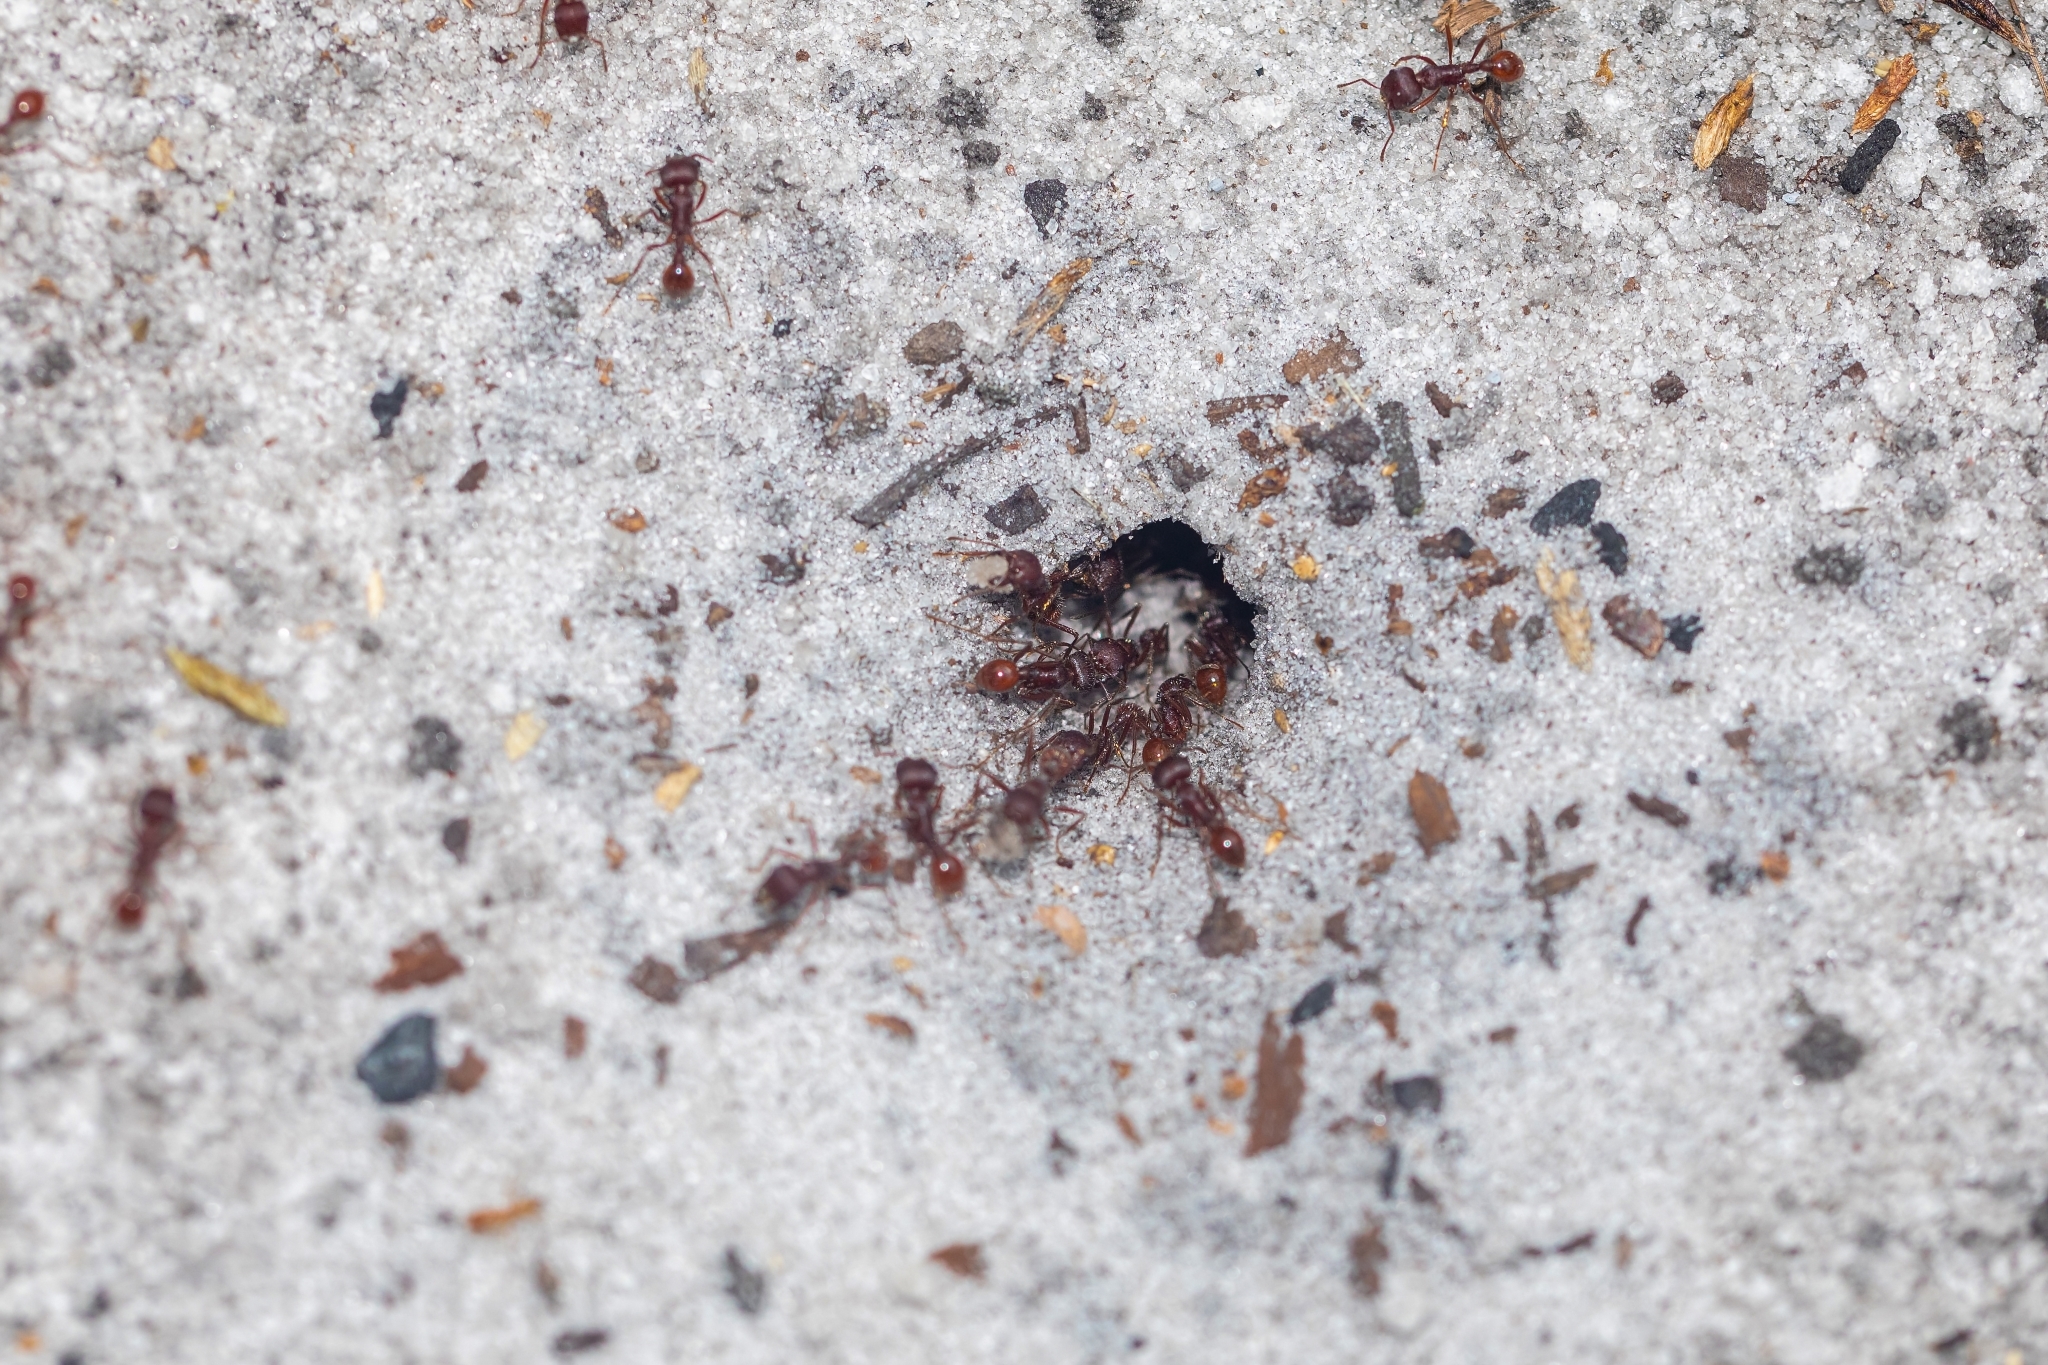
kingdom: Animalia
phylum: Arthropoda
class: Insecta
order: Hymenoptera
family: Formicidae
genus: Pogonomyrmex
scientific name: Pogonomyrmex badius
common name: Florida harvester ant
